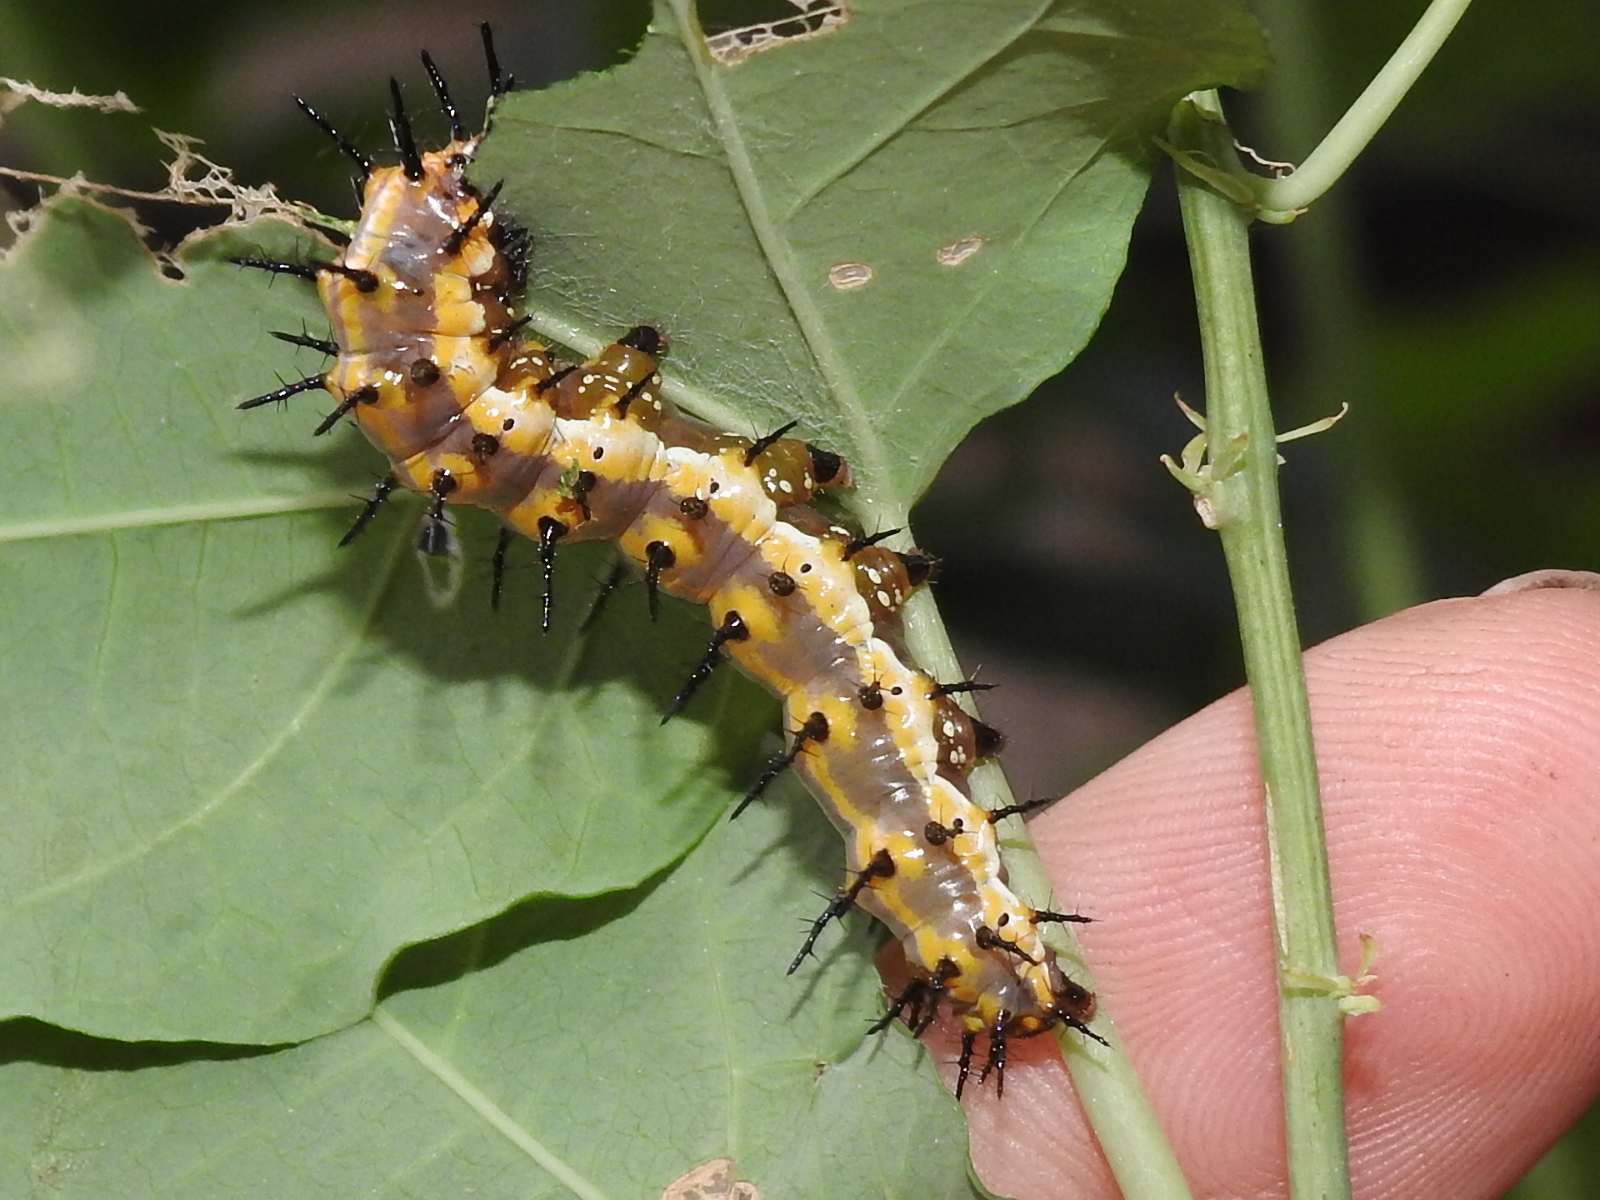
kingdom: Animalia
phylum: Arthropoda
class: Insecta
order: Lepidoptera
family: Nymphalidae
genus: Dione
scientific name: Dione vanillae
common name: Gulf fritillary
